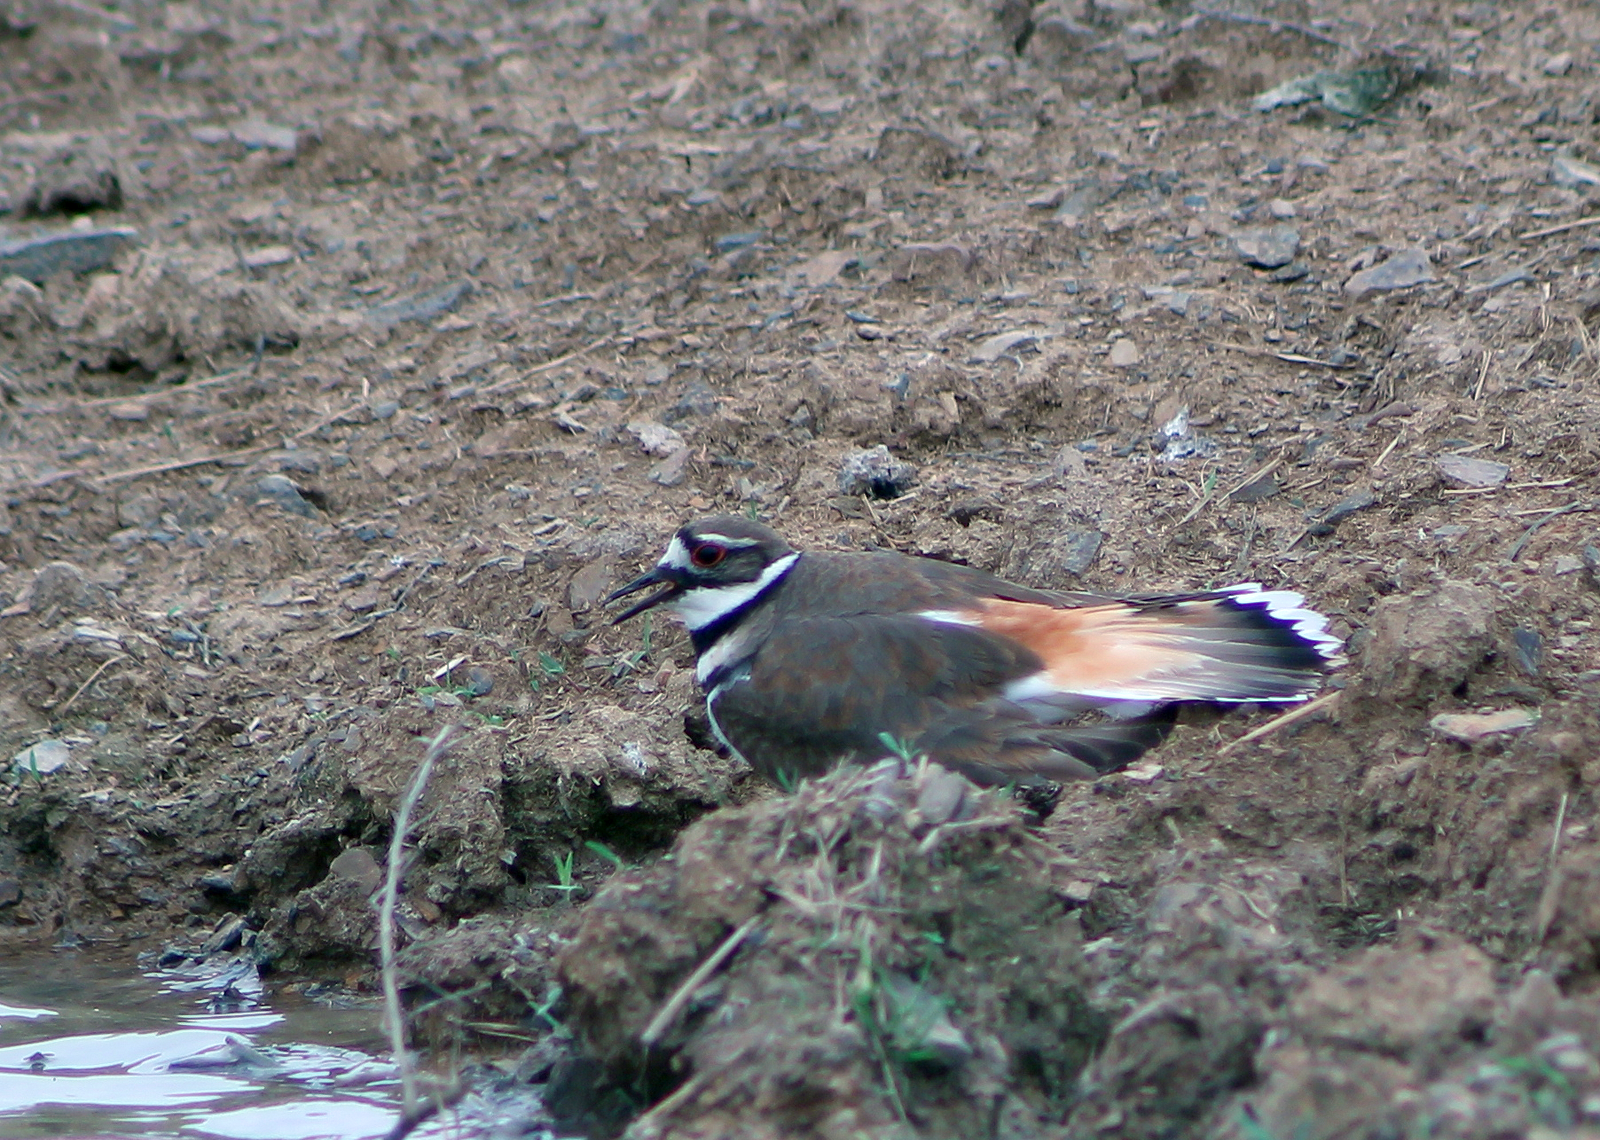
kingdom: Animalia
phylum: Chordata
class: Aves
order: Charadriiformes
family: Charadriidae
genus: Charadrius
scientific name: Charadrius vociferus
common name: Killdeer
